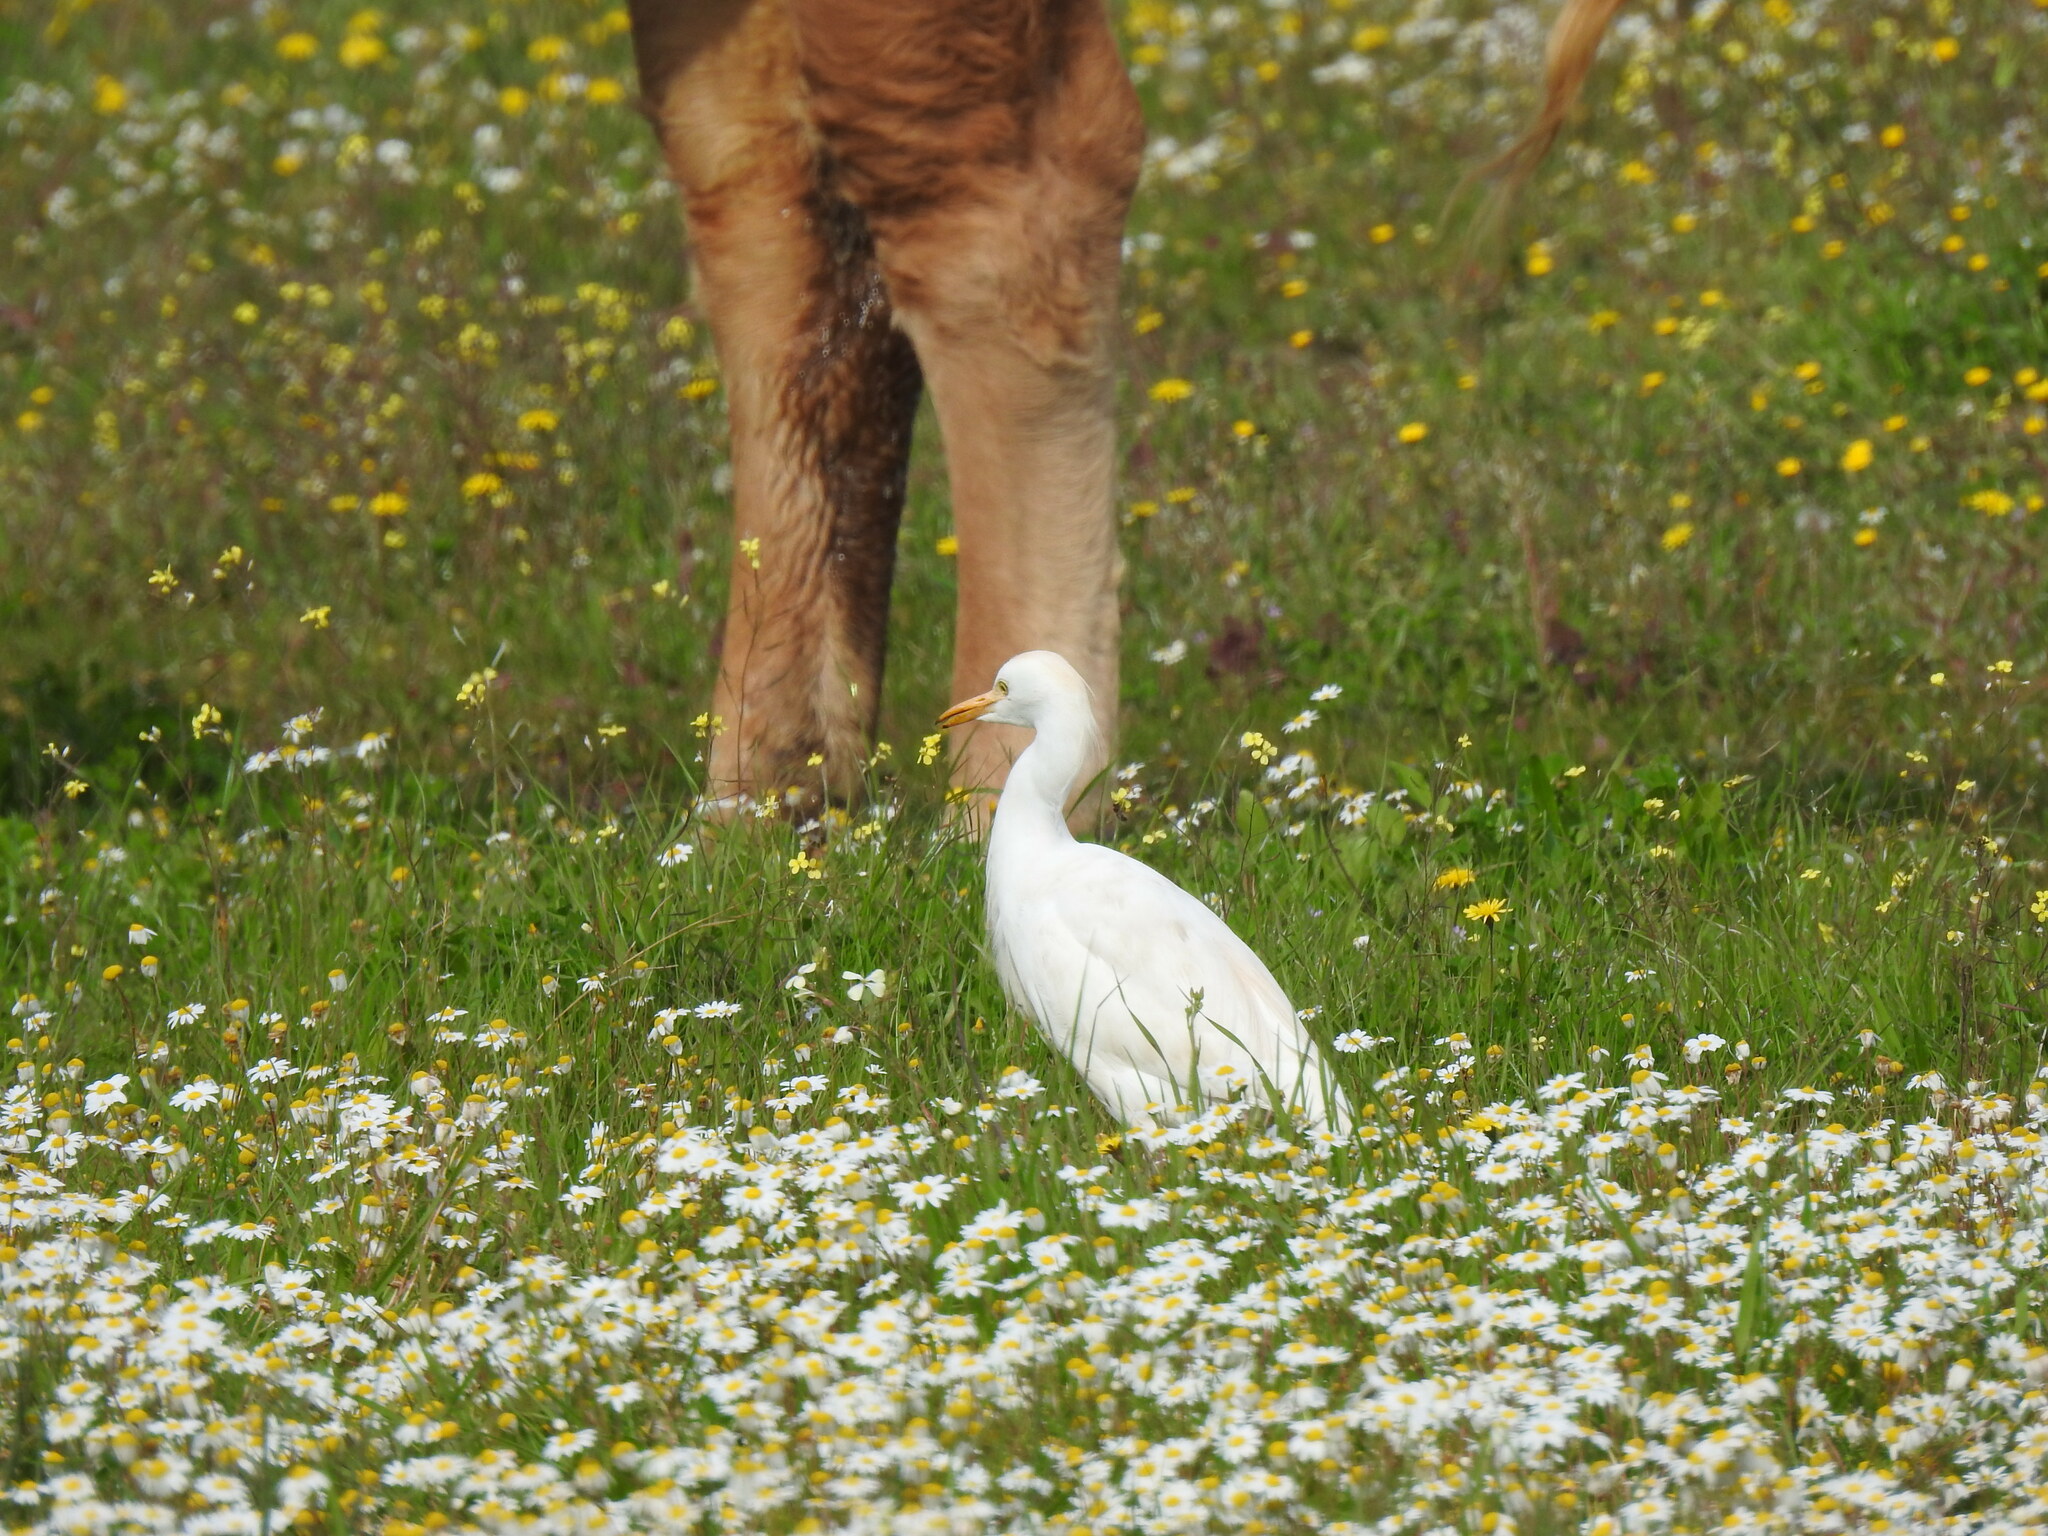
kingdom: Animalia
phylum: Chordata
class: Aves
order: Pelecaniformes
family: Ardeidae
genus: Bubulcus
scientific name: Bubulcus ibis
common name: Cattle egret
